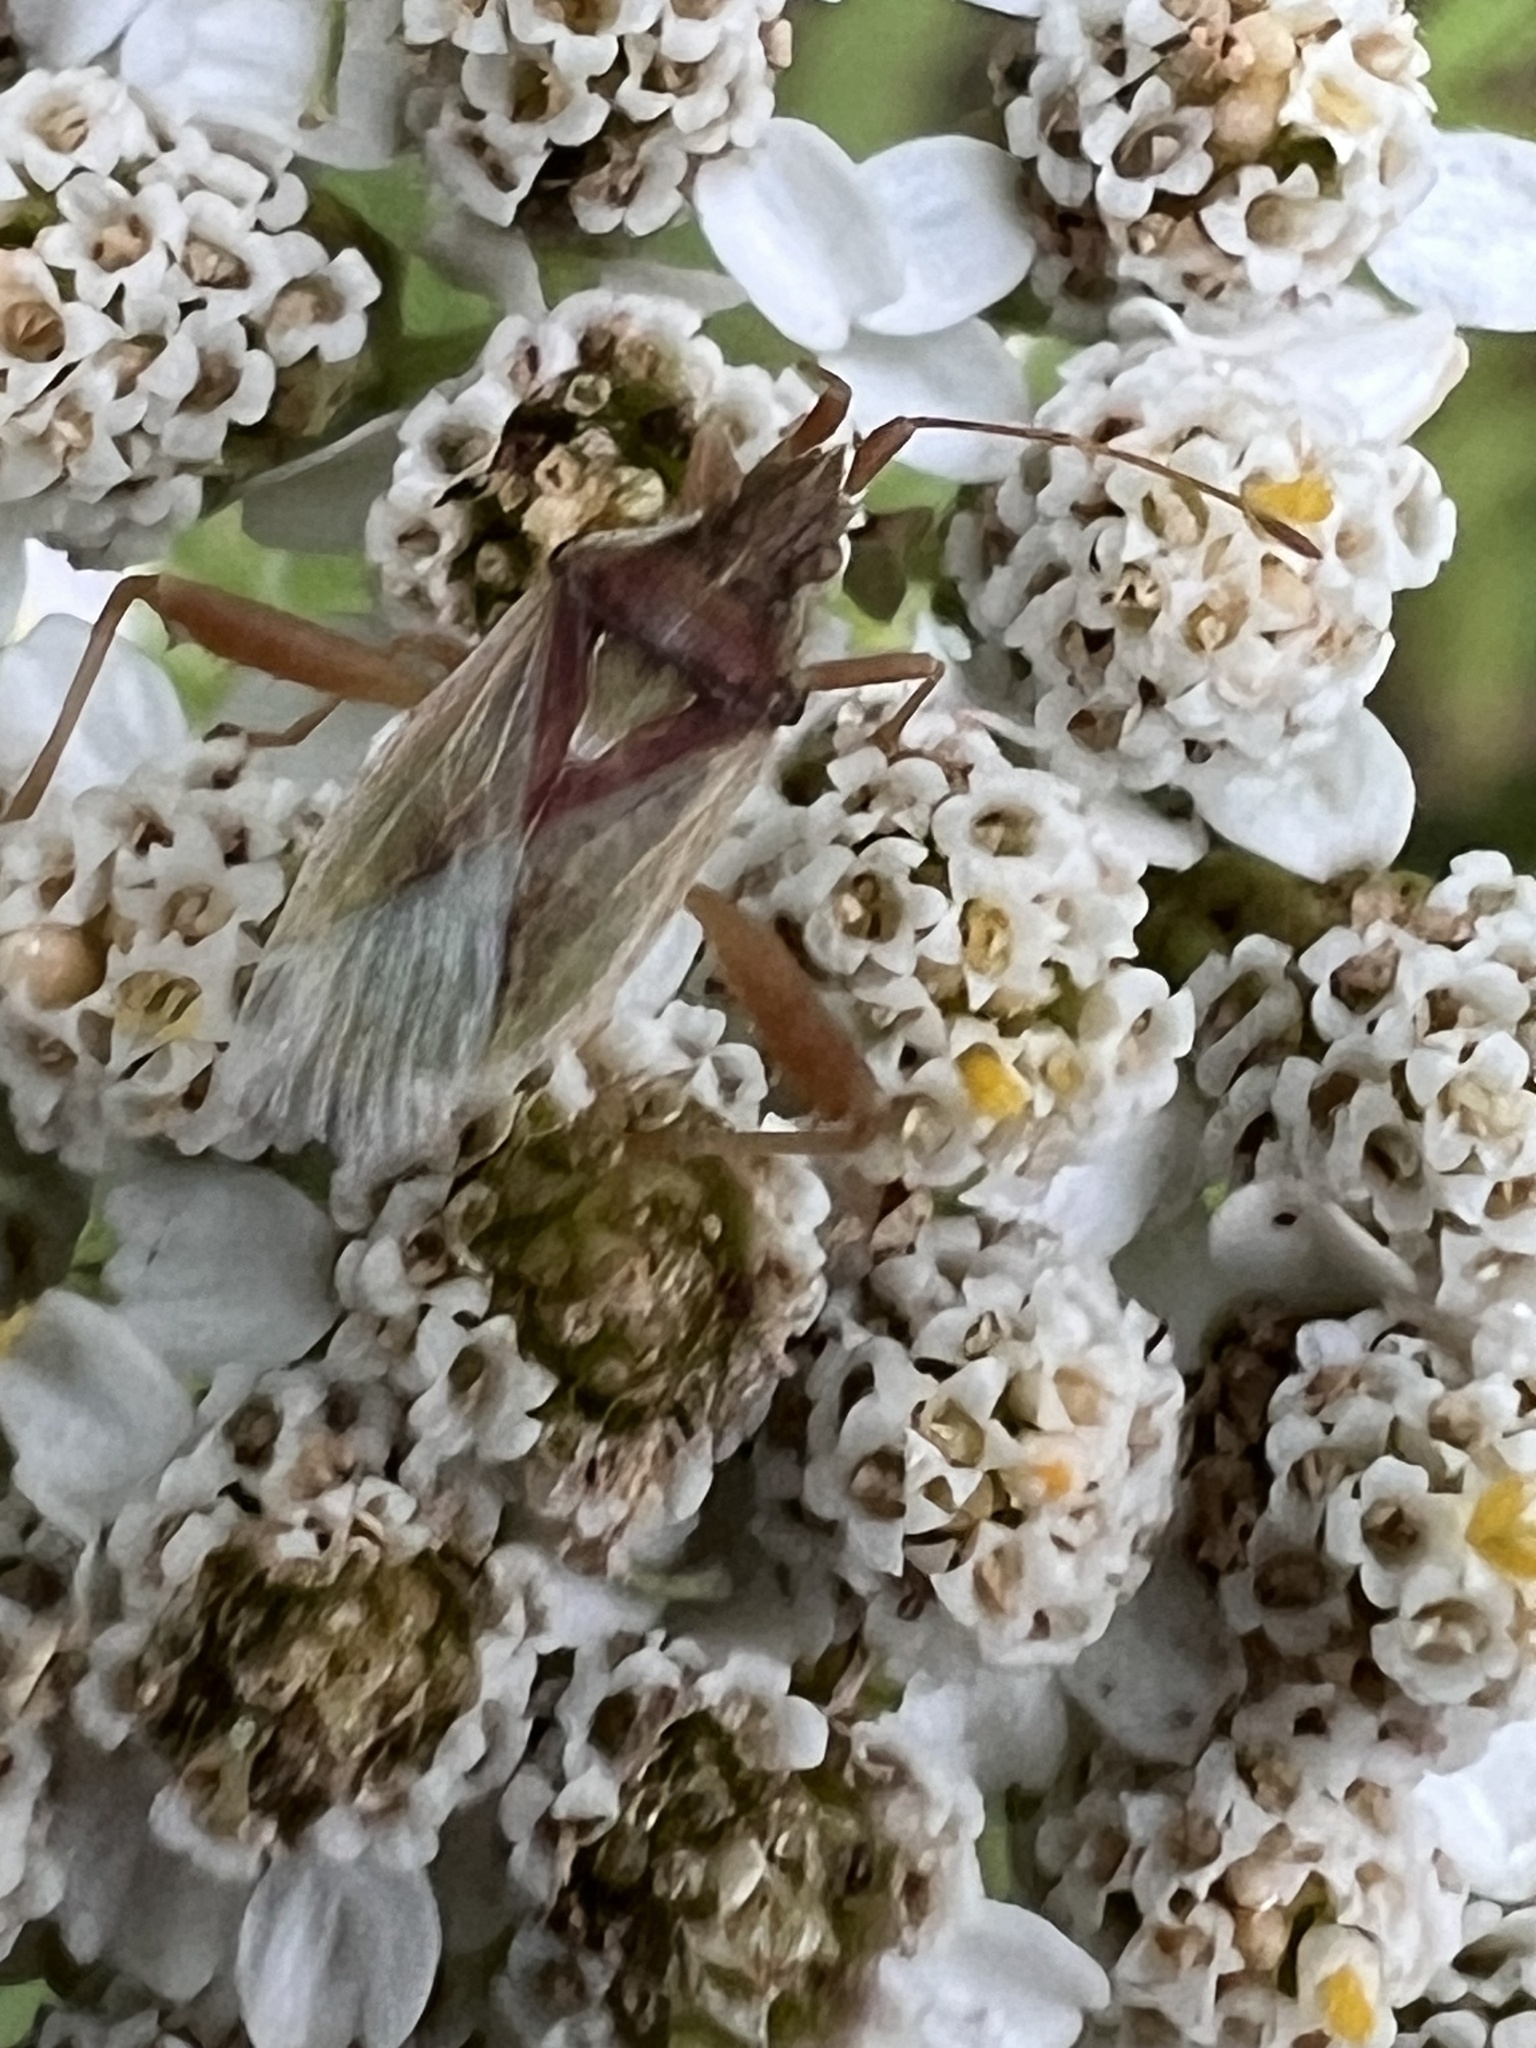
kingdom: Animalia
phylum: Arthropoda
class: Insecta
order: Hemiptera
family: Rhopalidae
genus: Harmostes
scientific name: Harmostes reflexulus
